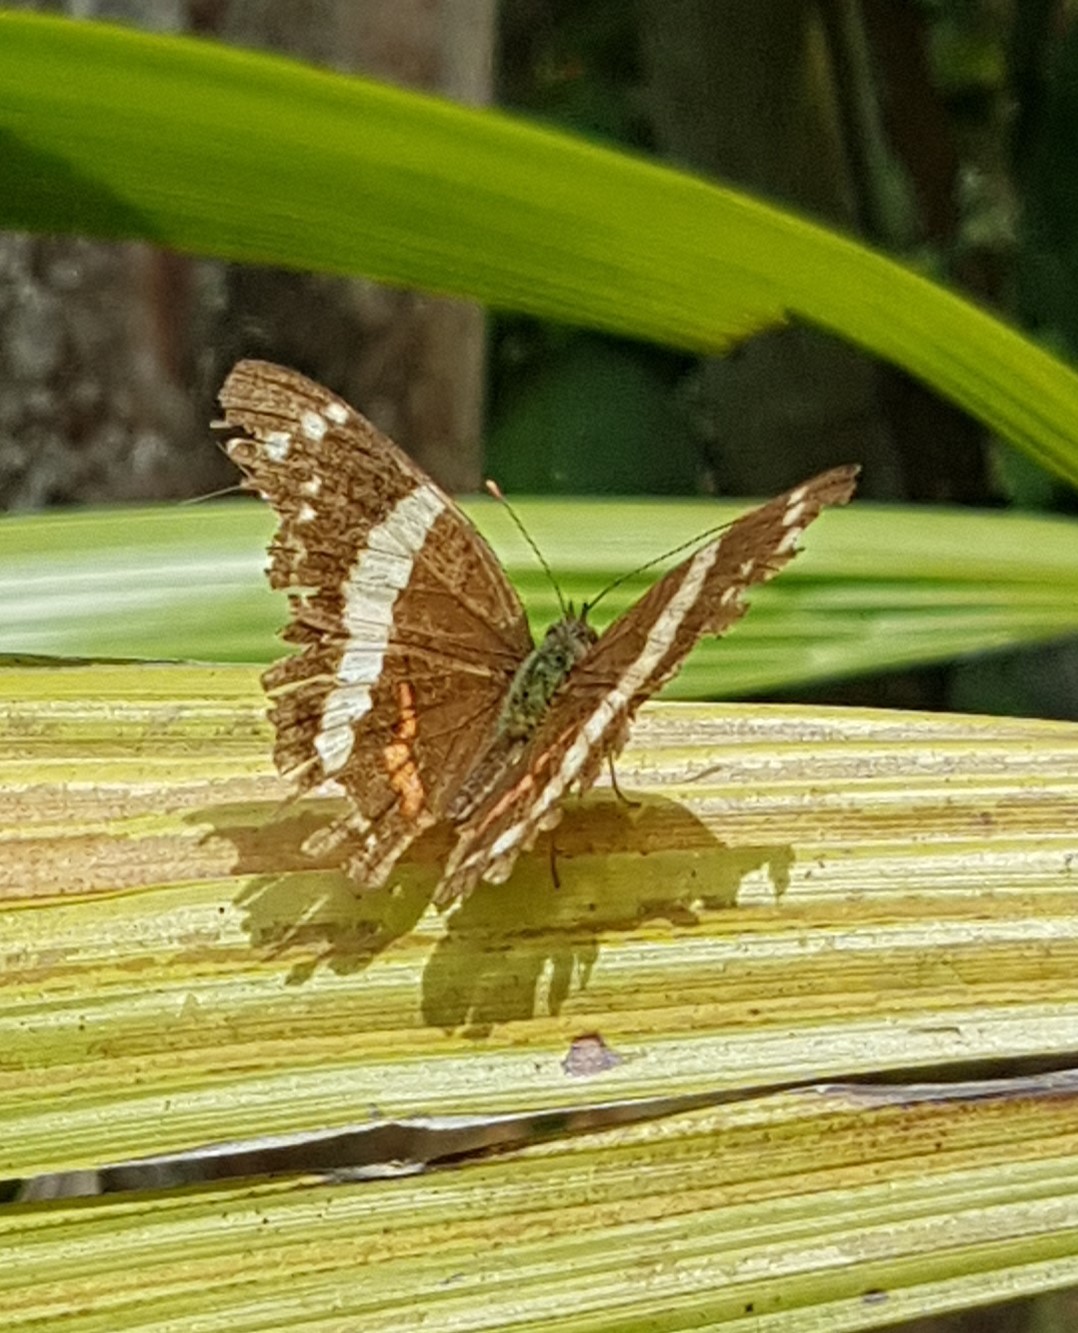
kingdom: Animalia
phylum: Arthropoda
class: Insecta
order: Lepidoptera
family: Nymphalidae
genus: Anartia
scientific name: Anartia fatima
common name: Banded peacock
